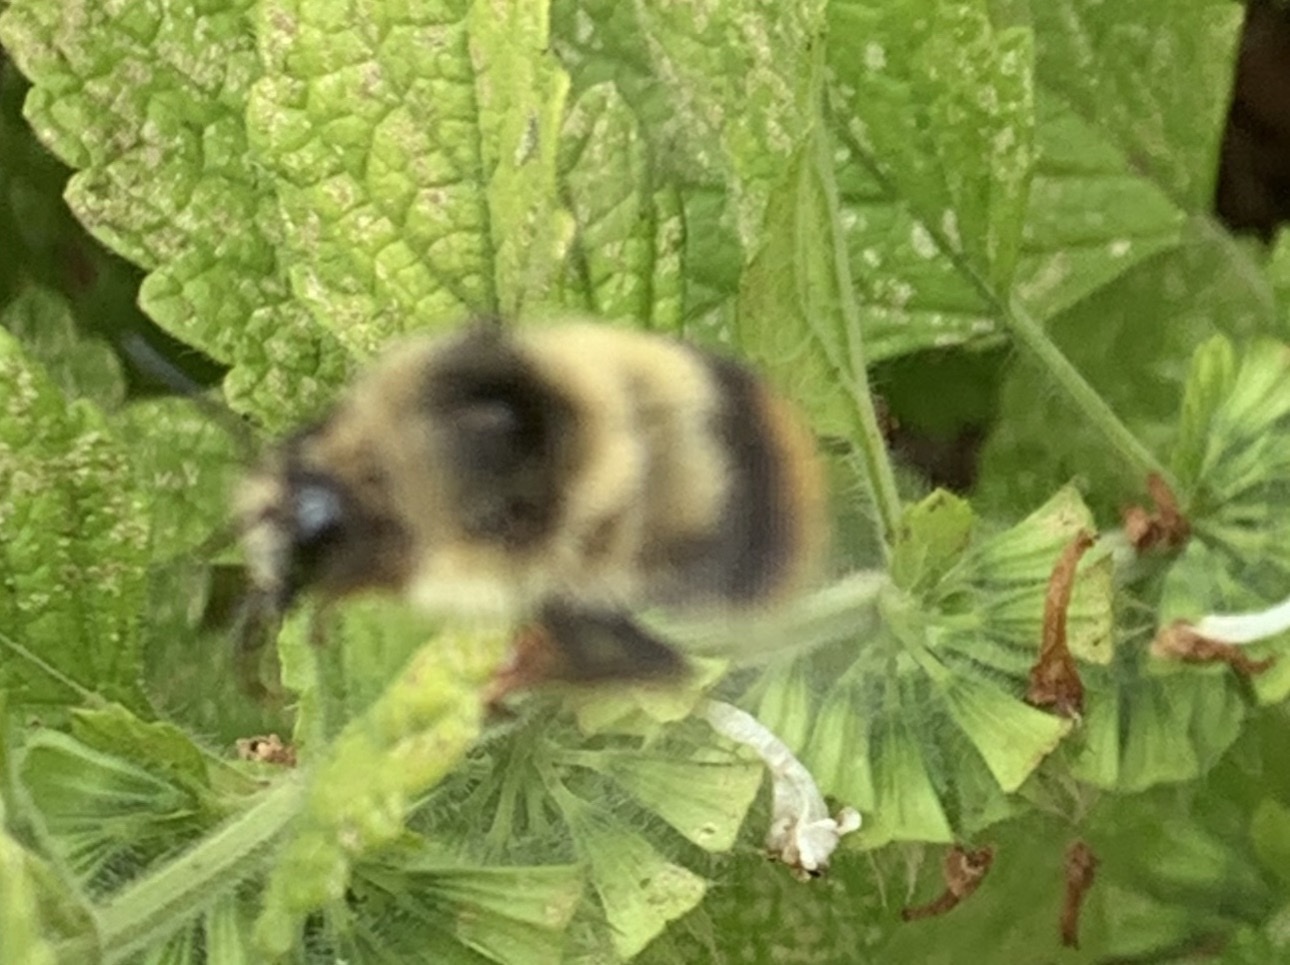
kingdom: Animalia
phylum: Arthropoda
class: Insecta
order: Hymenoptera
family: Apidae
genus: Bombus
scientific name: Bombus mixtus
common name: Fuzzy-horned bumble bee
